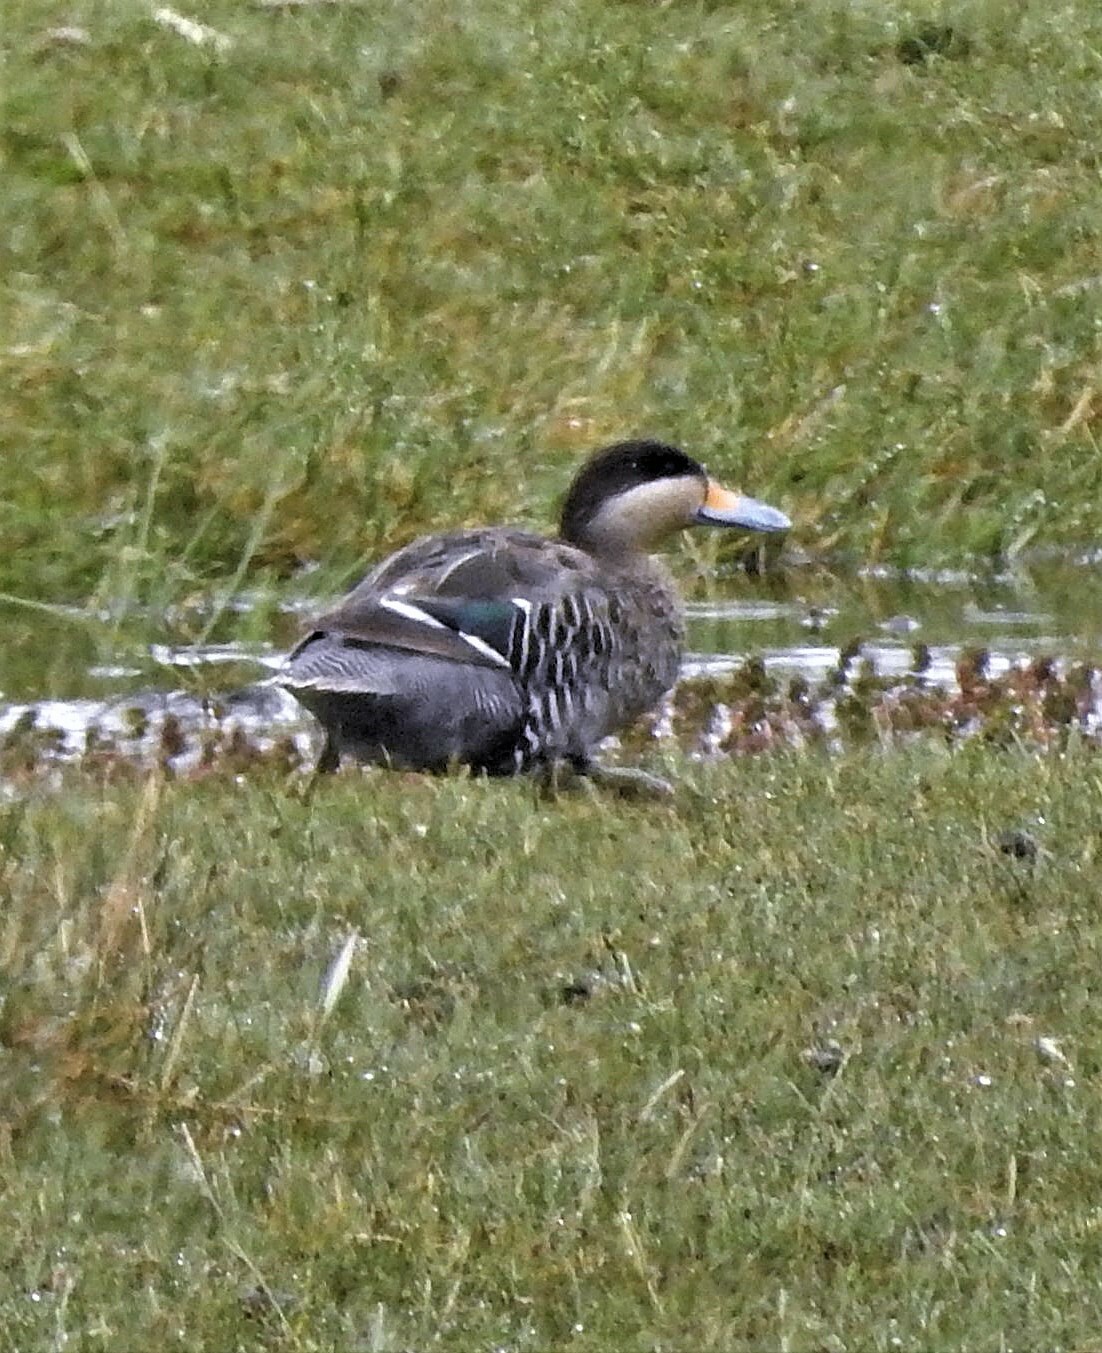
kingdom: Animalia
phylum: Chordata
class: Aves
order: Anseriformes
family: Anatidae
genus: Spatula
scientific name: Spatula versicolor
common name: Silver teal
